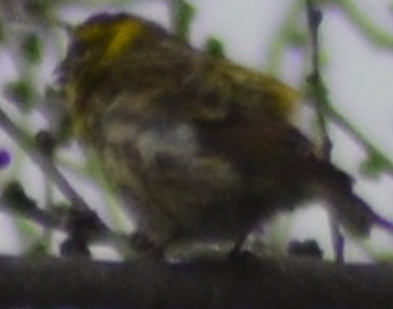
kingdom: Animalia
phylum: Chordata
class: Aves
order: Passeriformes
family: Fringillidae
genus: Serinus
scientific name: Serinus serinus
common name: European serin
